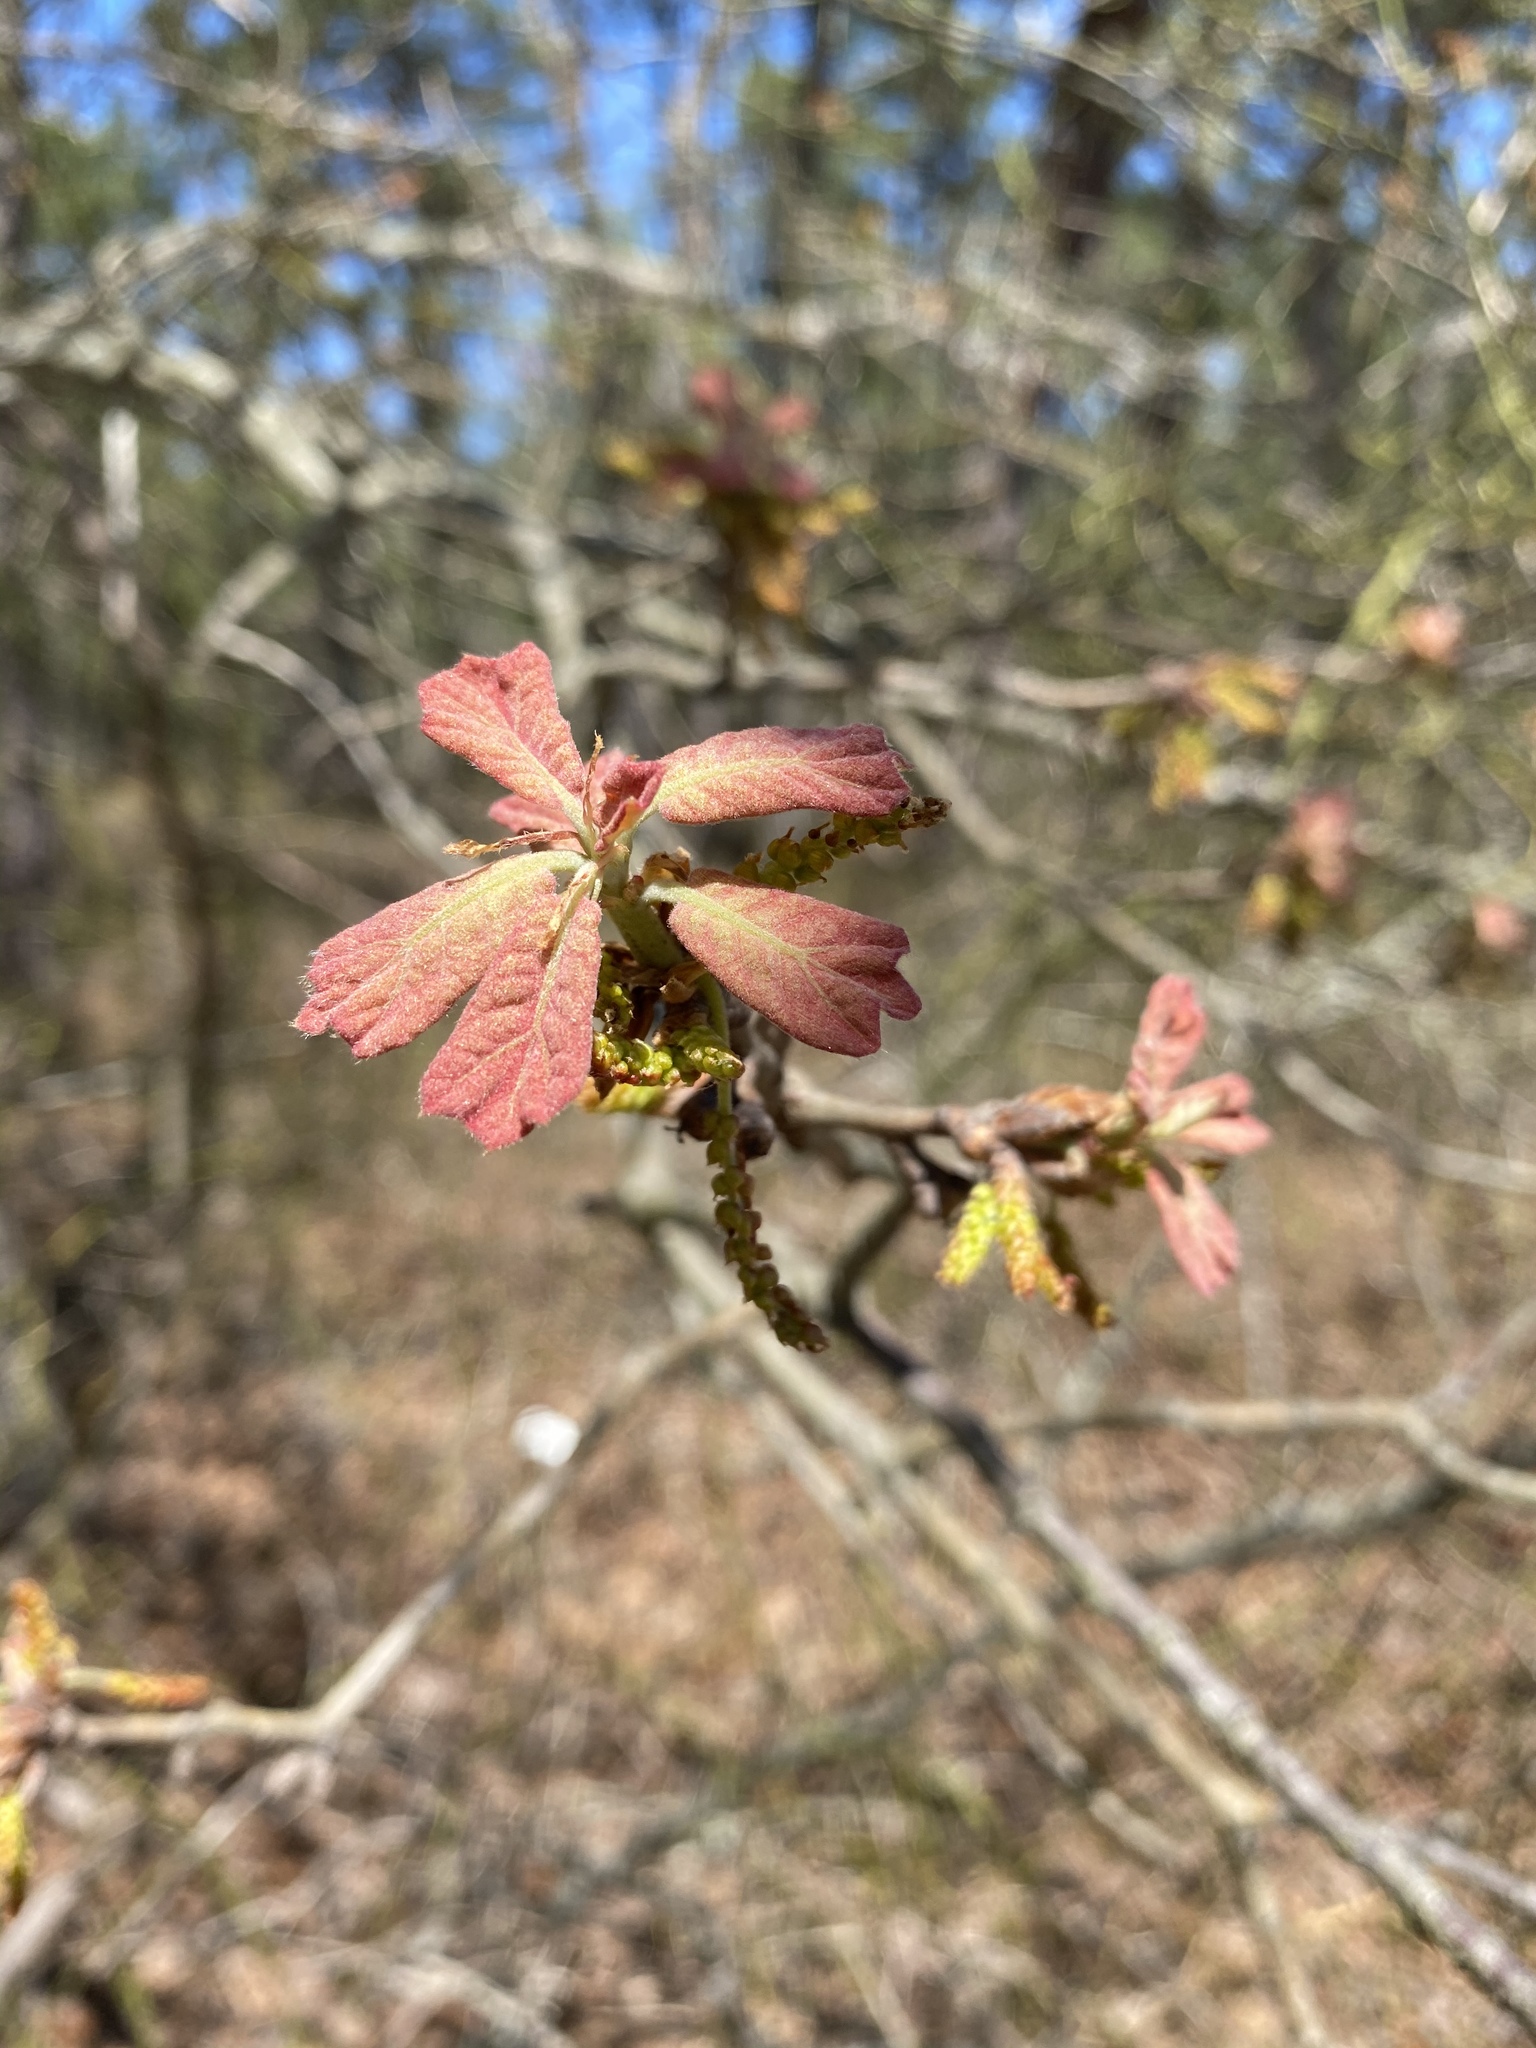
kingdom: Plantae
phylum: Tracheophyta
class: Magnoliopsida
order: Fagales
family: Fagaceae
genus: Quercus
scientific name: Quercus marilandica
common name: Blackjack oak
